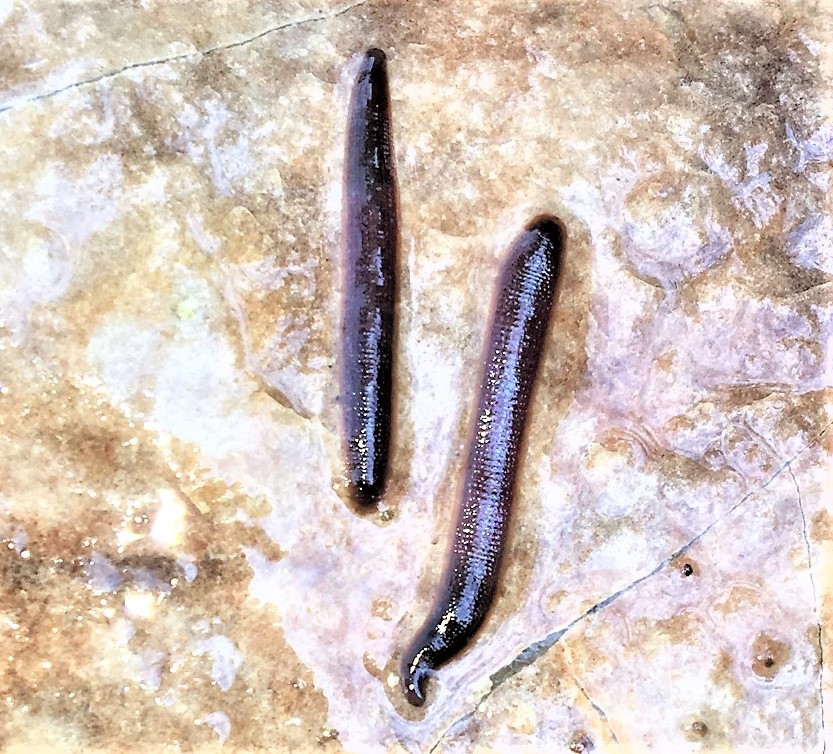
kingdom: Animalia
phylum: Annelida
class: Clitellata
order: Arhynchobdellida
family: Haemopidae
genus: Haemopis
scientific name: Haemopis plumbea
